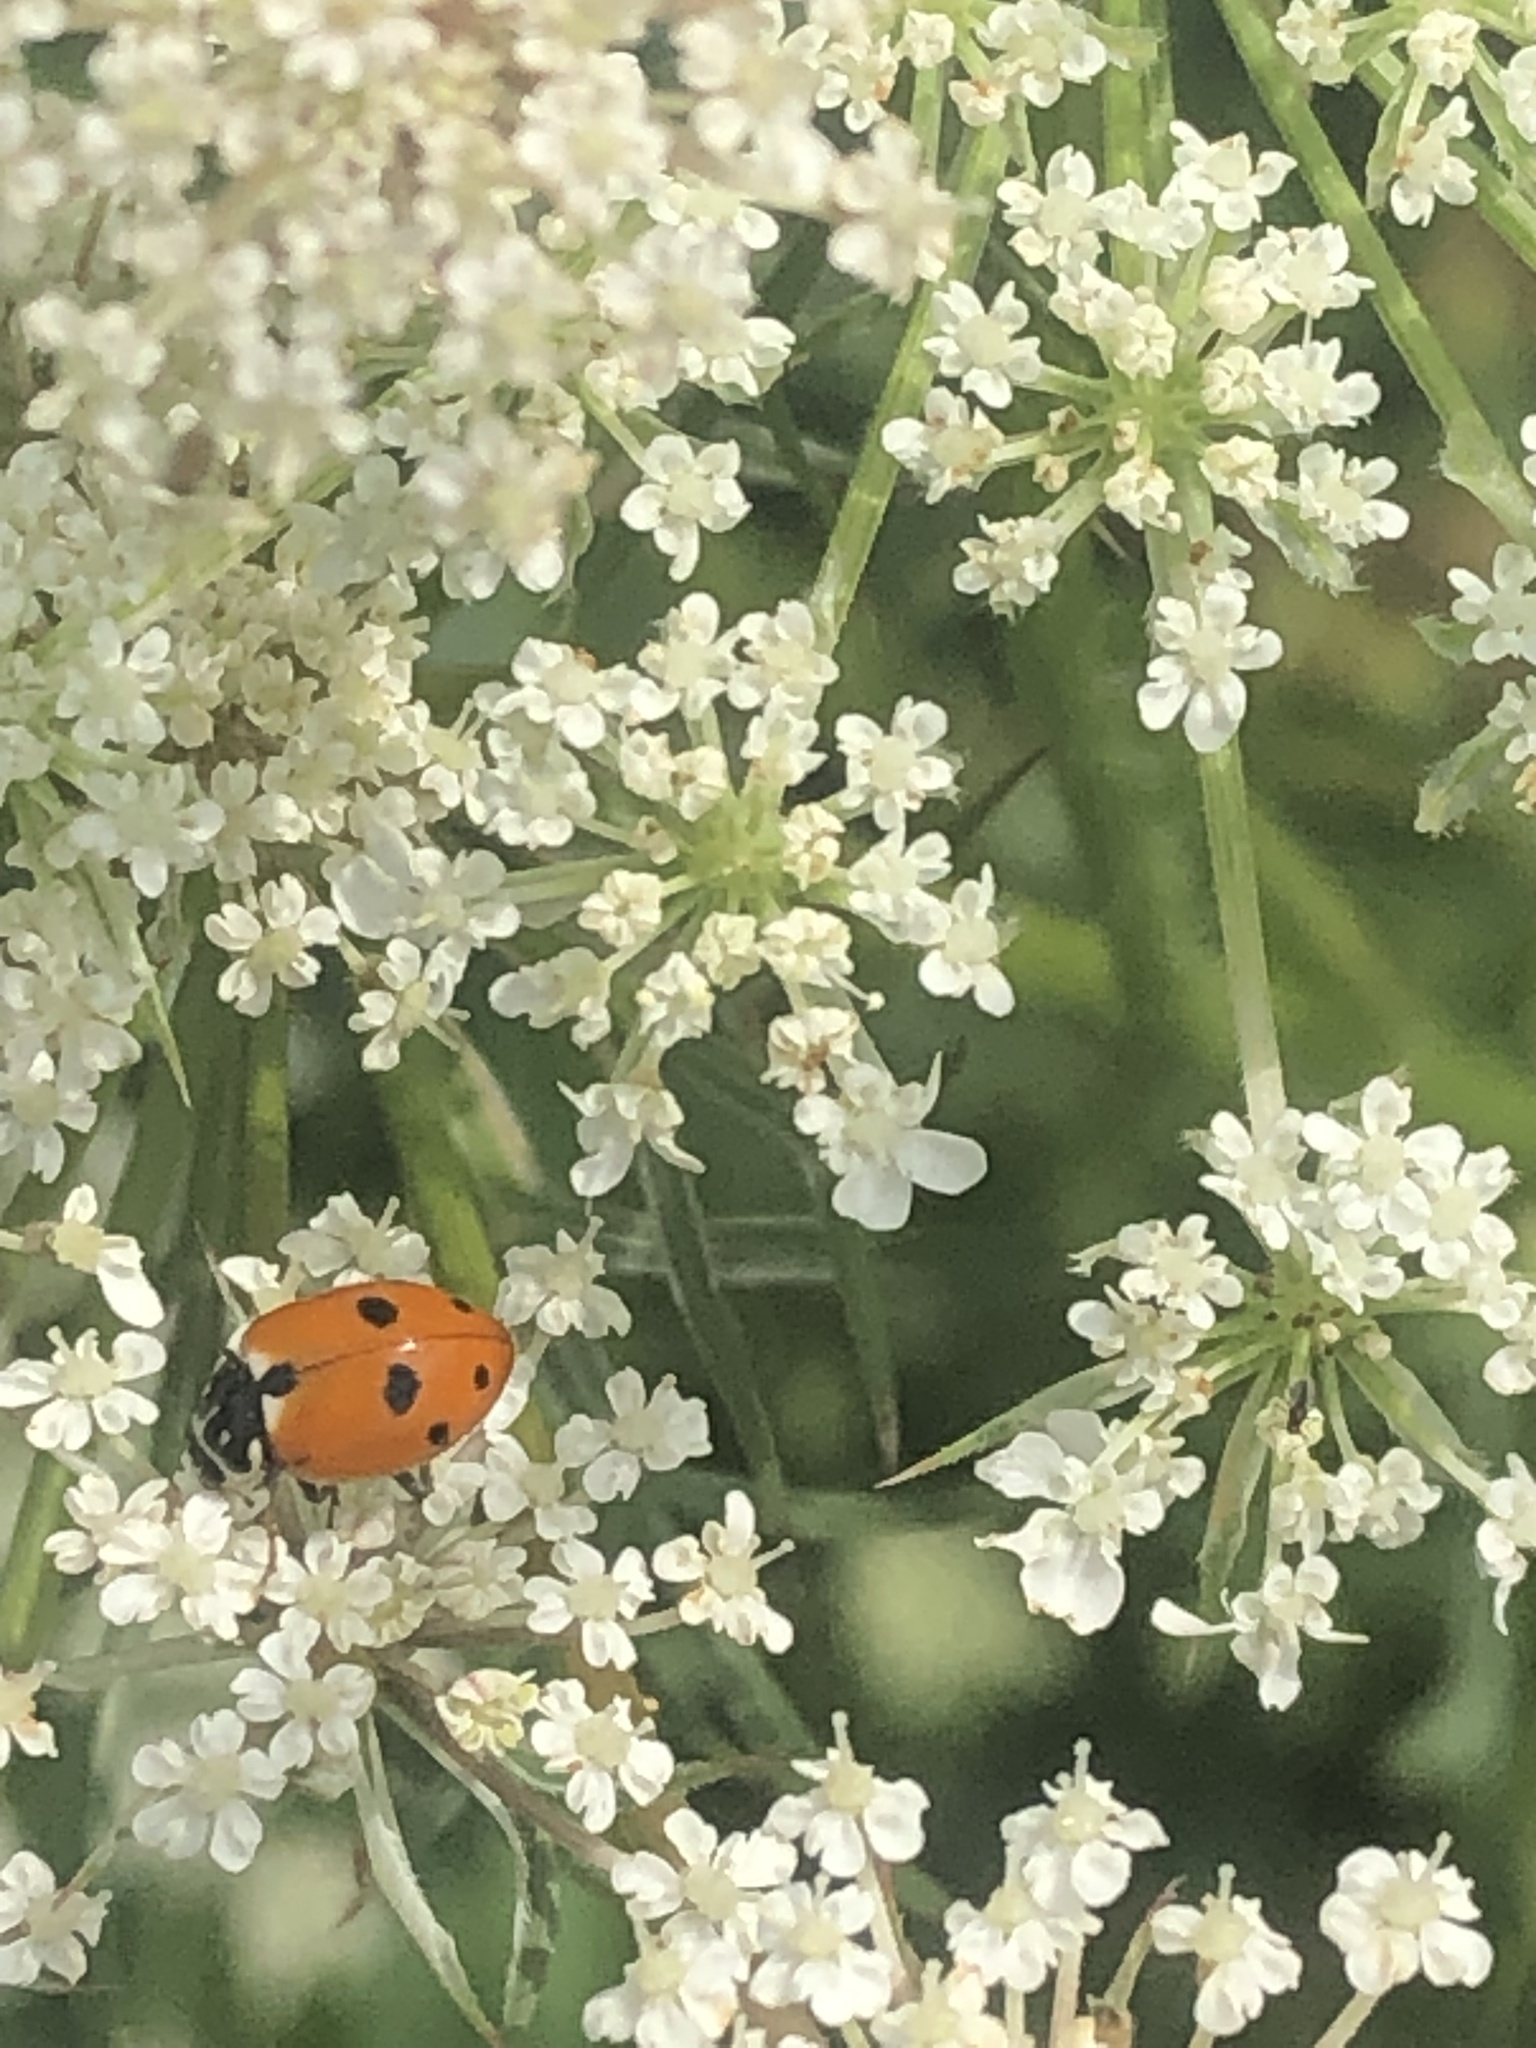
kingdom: Animalia
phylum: Arthropoda
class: Insecta
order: Coleoptera
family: Coccinellidae
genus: Hippodamia
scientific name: Hippodamia variegata
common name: Ladybird beetle
